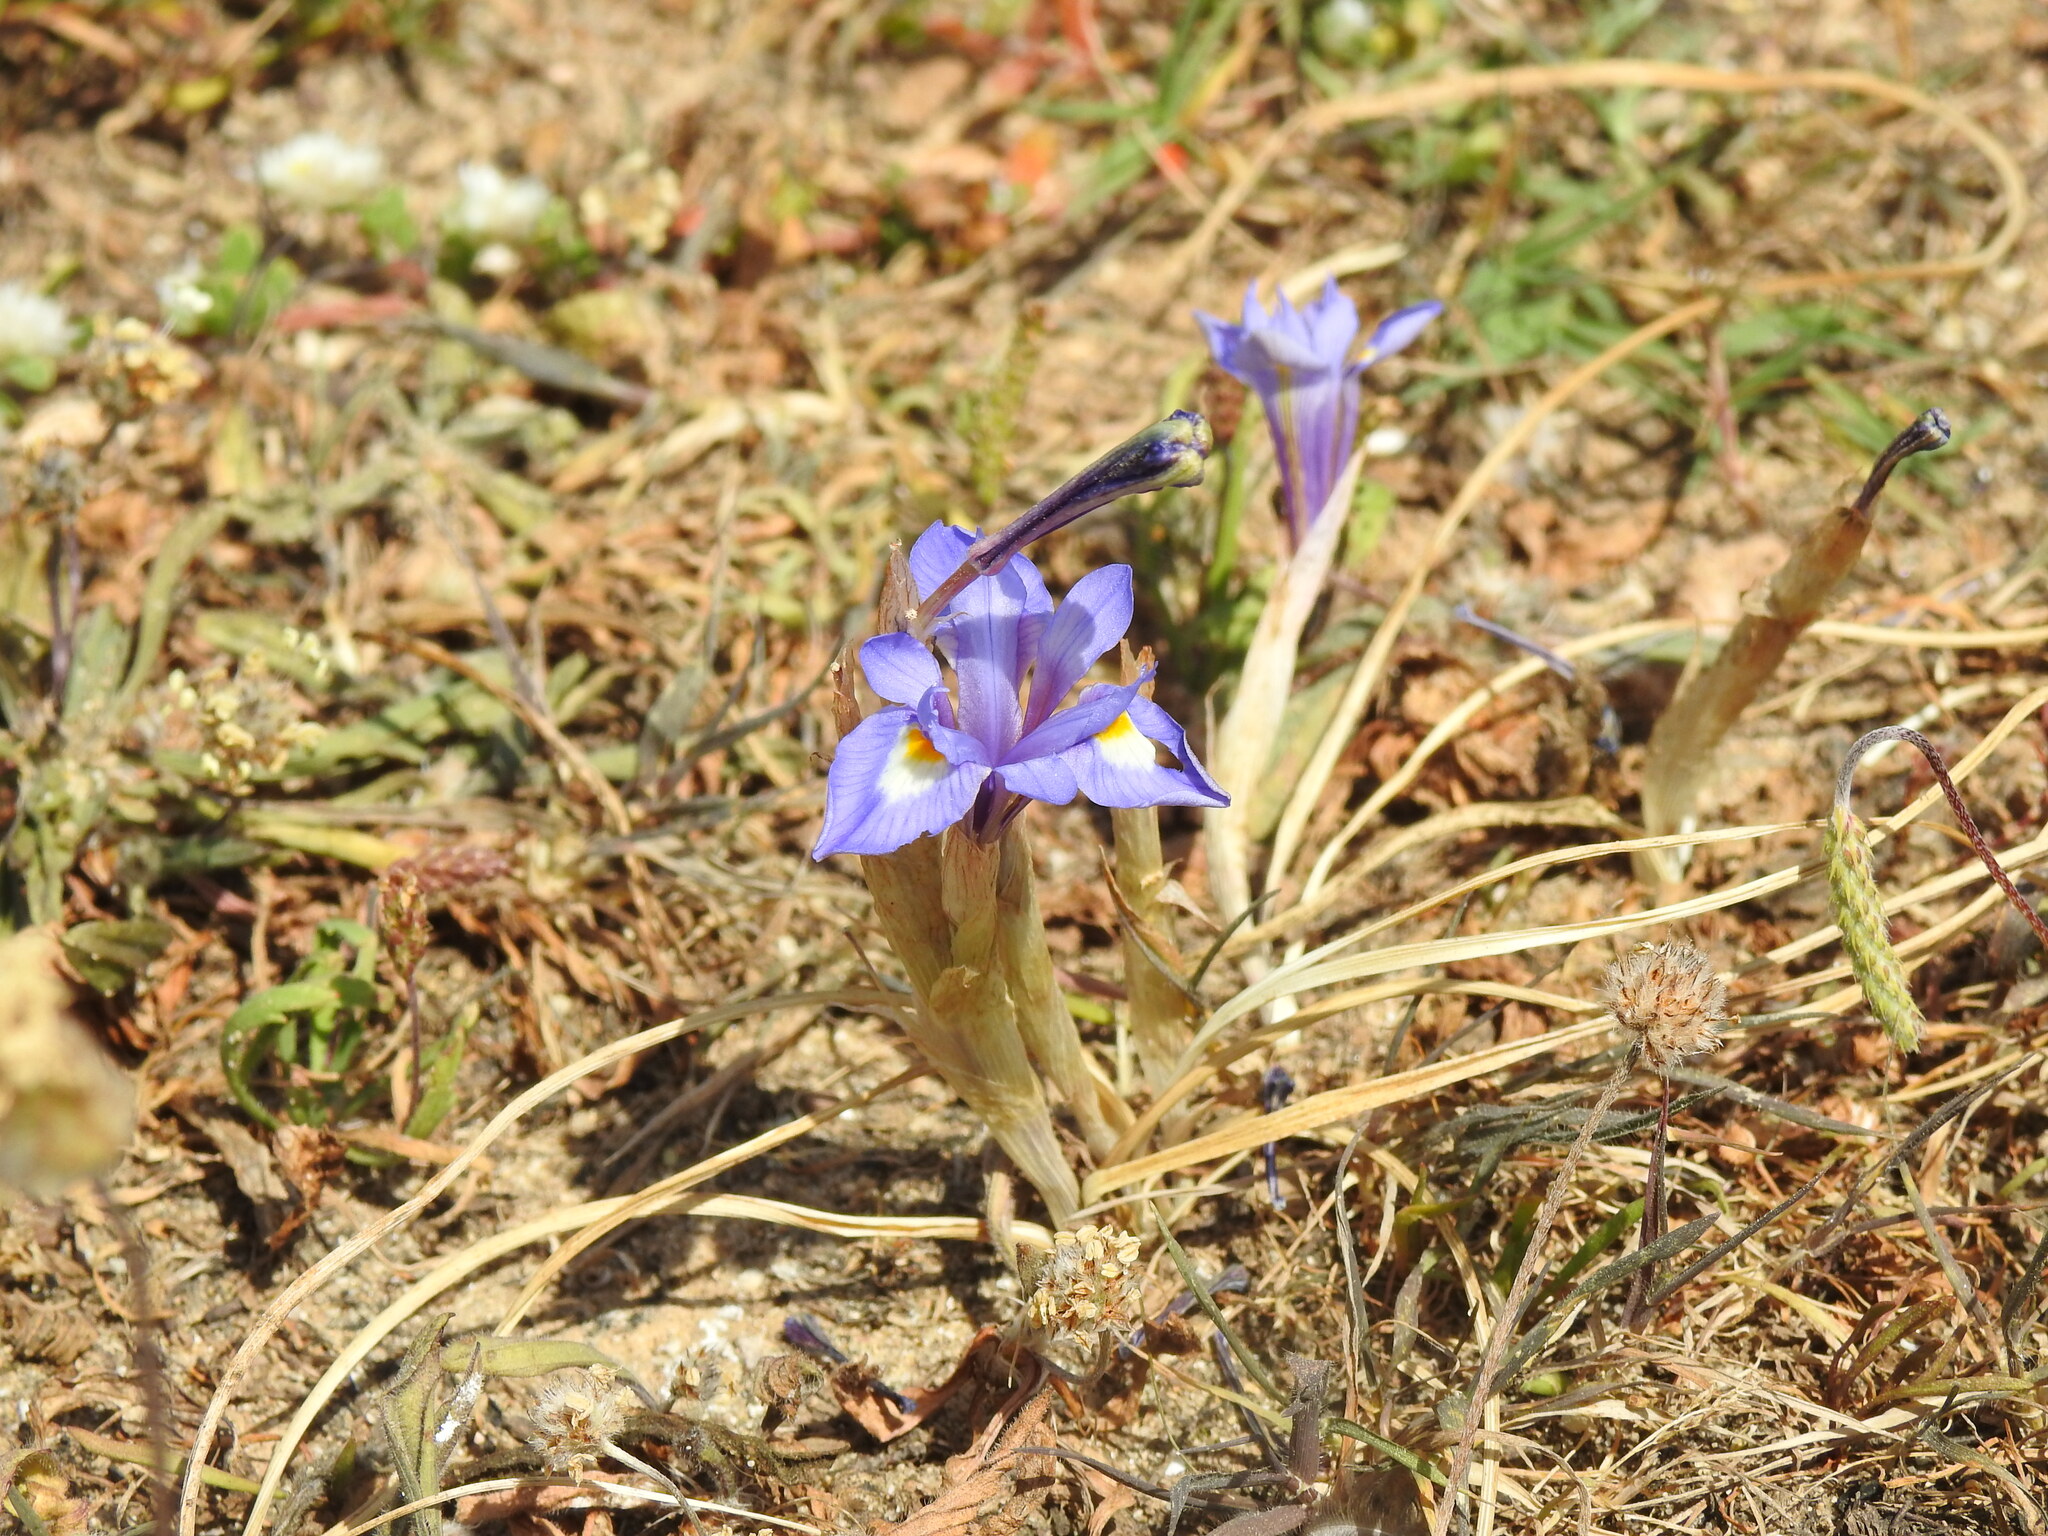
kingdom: Plantae
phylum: Tracheophyta
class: Liliopsida
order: Asparagales
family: Iridaceae
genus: Moraea
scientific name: Moraea sisyrinchium
